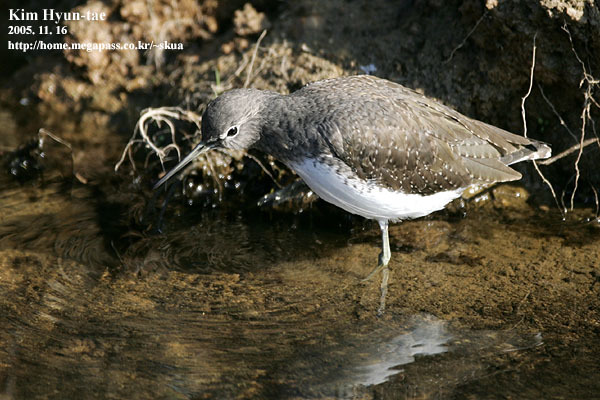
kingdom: Animalia
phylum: Chordata
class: Aves
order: Charadriiformes
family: Scolopacidae
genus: Tringa
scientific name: Tringa ochropus
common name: Green sandpiper
